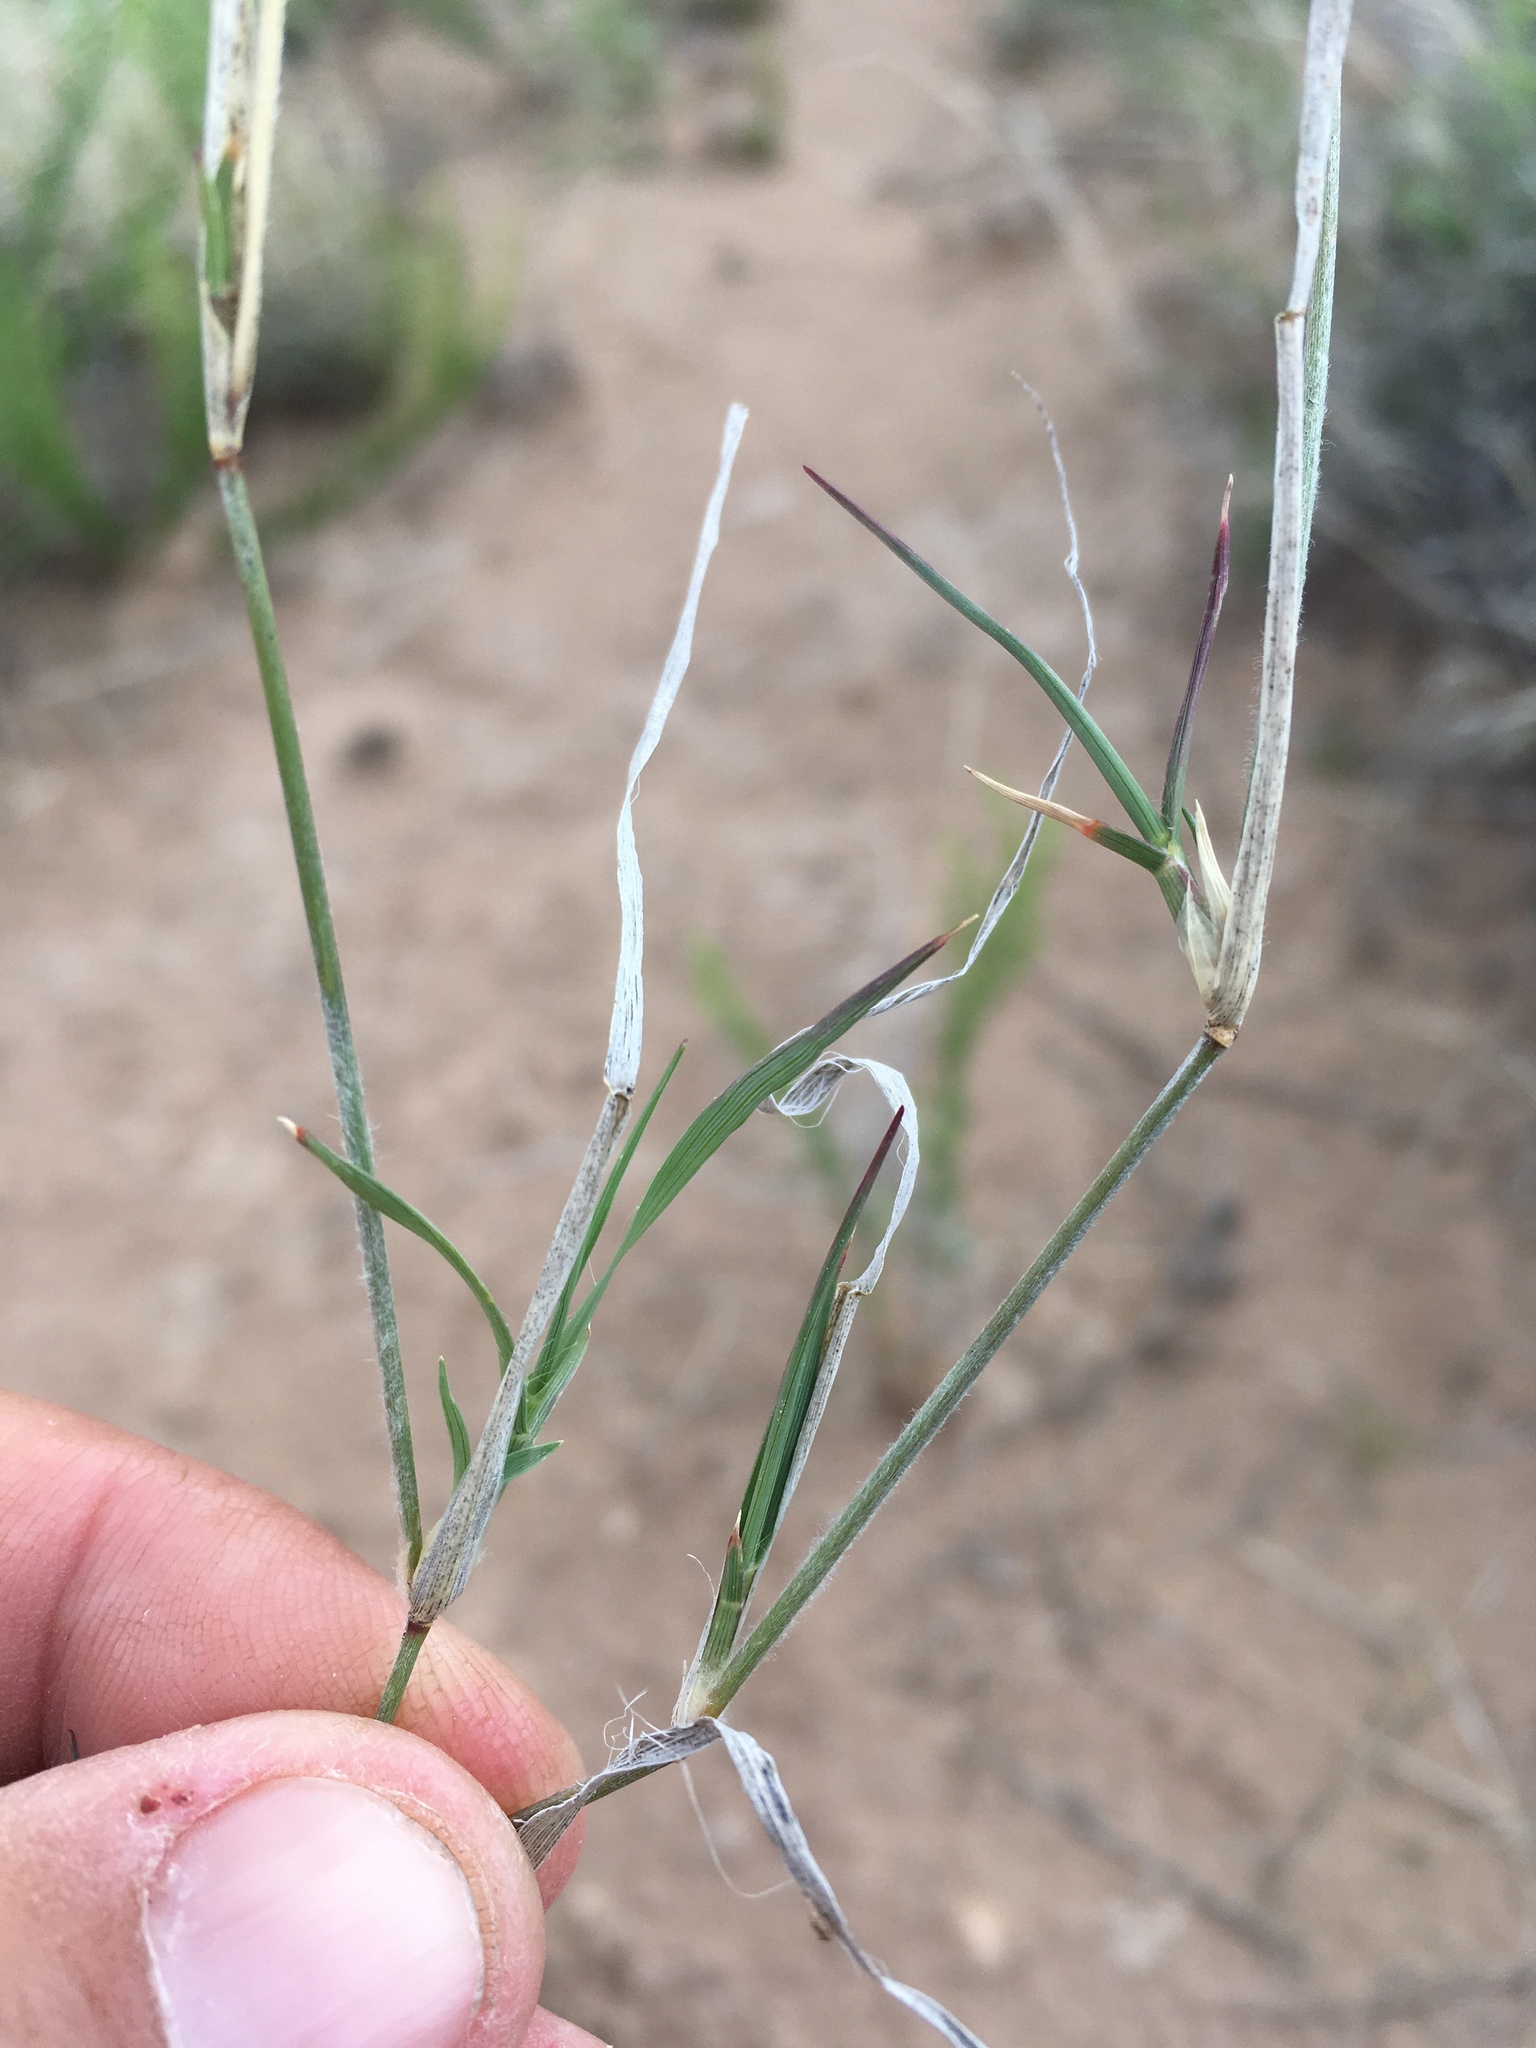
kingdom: Plantae
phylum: Tracheophyta
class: Liliopsida
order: Poales
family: Poaceae
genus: Bouteloua
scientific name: Bouteloua eriopoda
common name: Woolly foot grama
